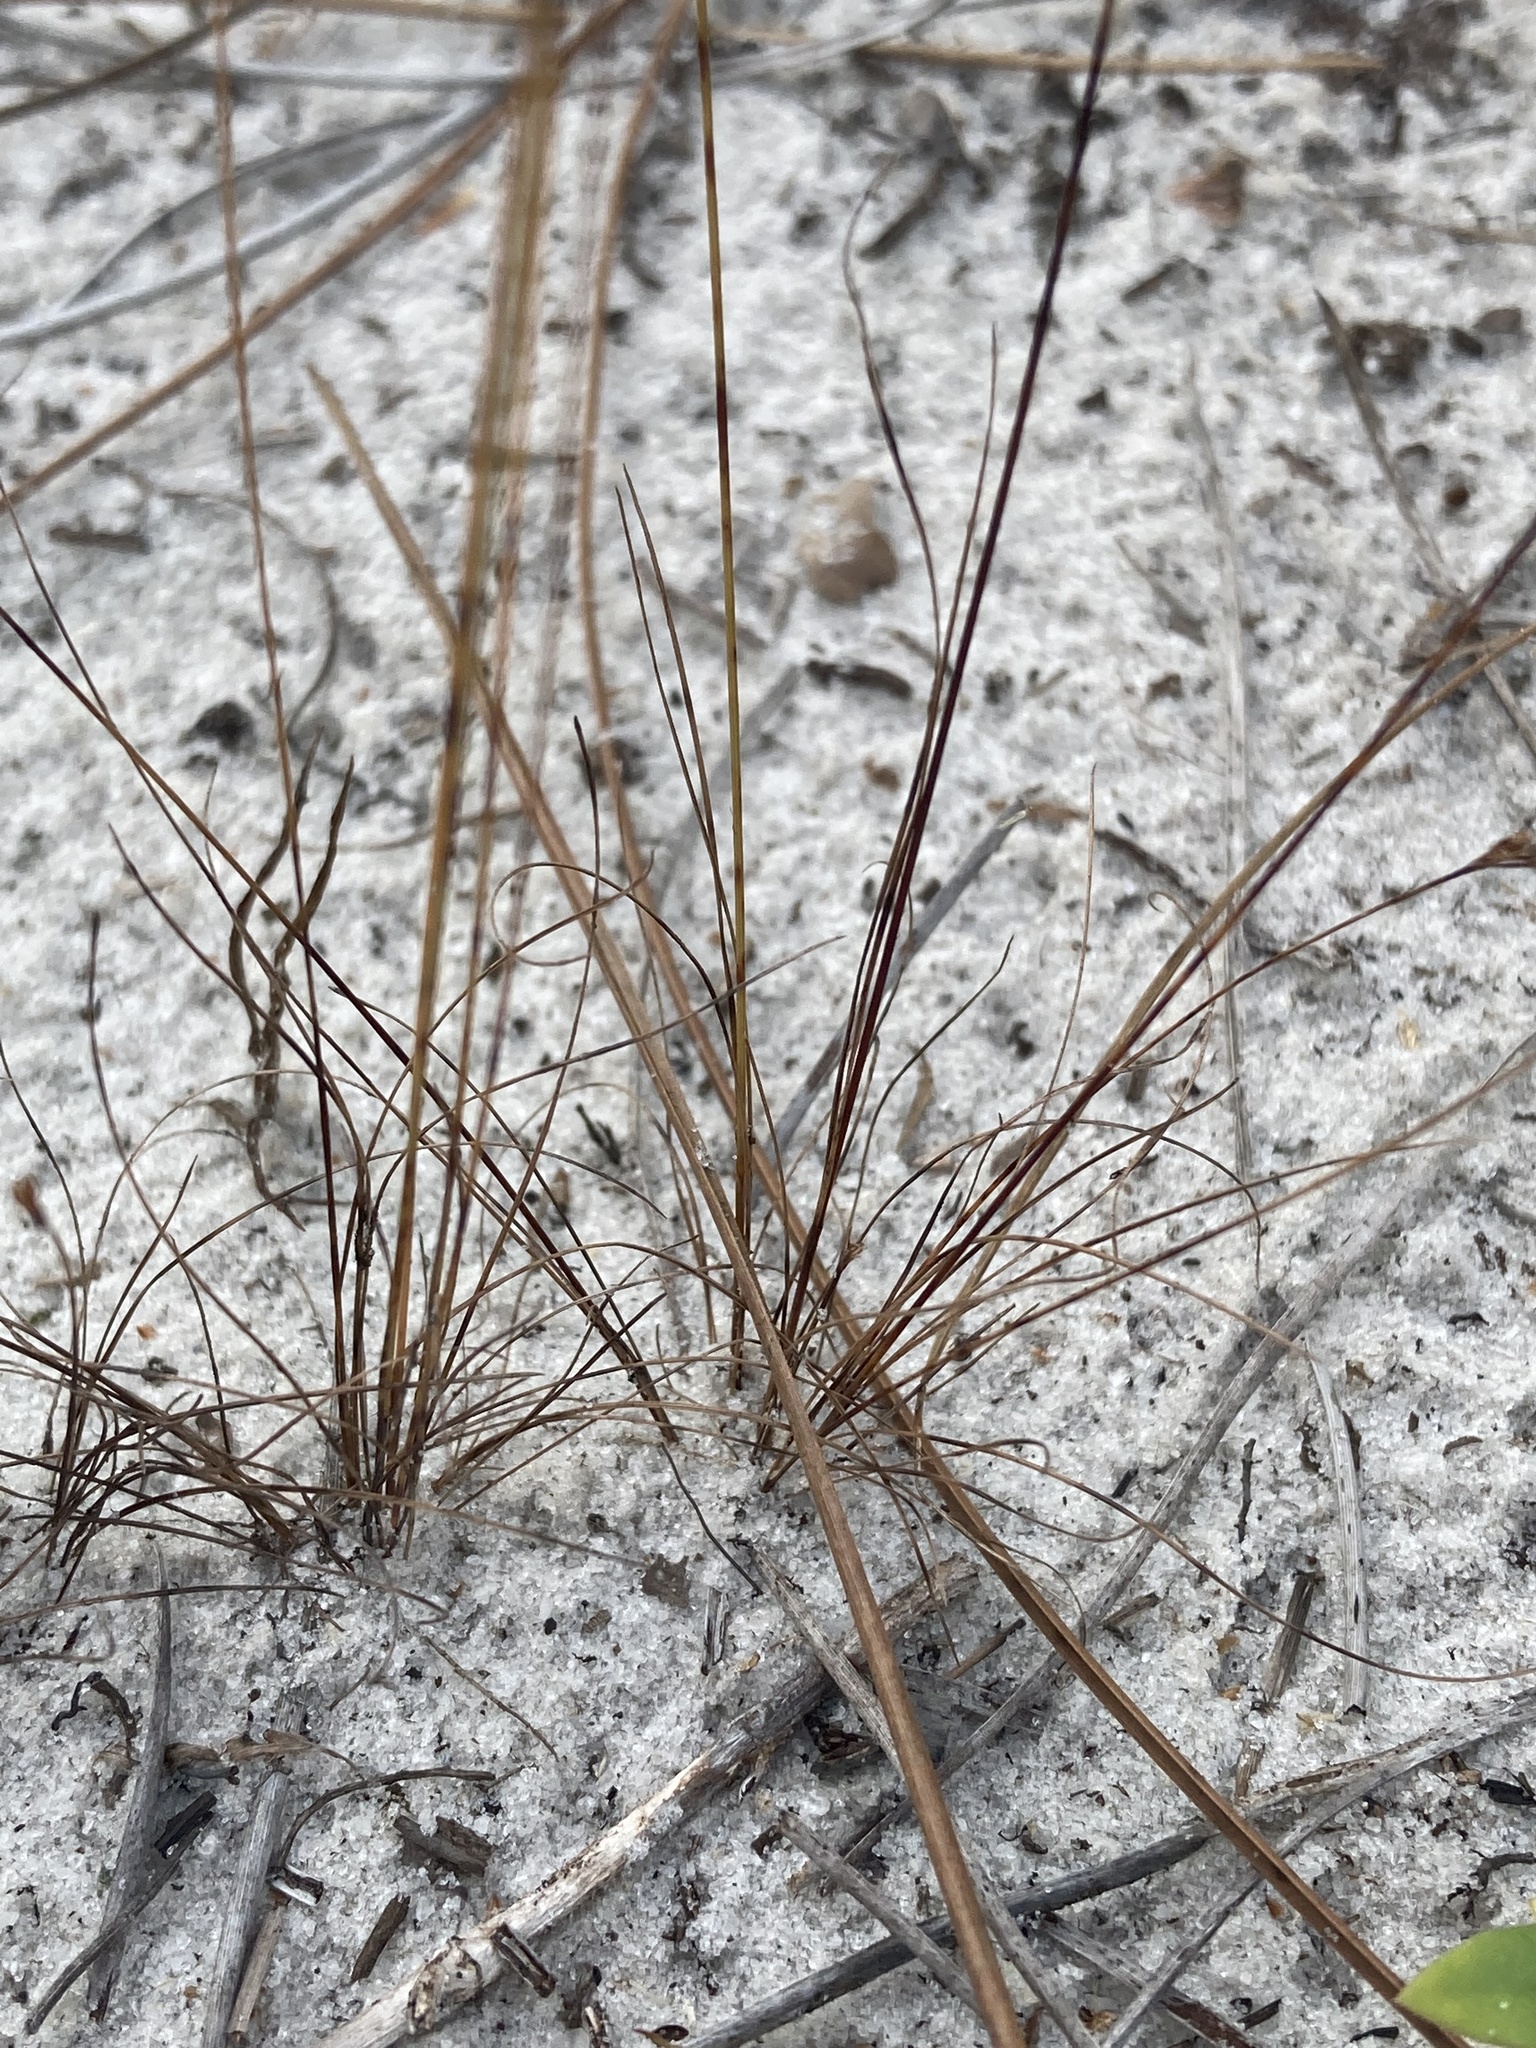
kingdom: Plantae
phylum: Tracheophyta
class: Liliopsida
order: Poales
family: Cyperaceae
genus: Bulbostylis
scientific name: Bulbostylis ciliatifolia
